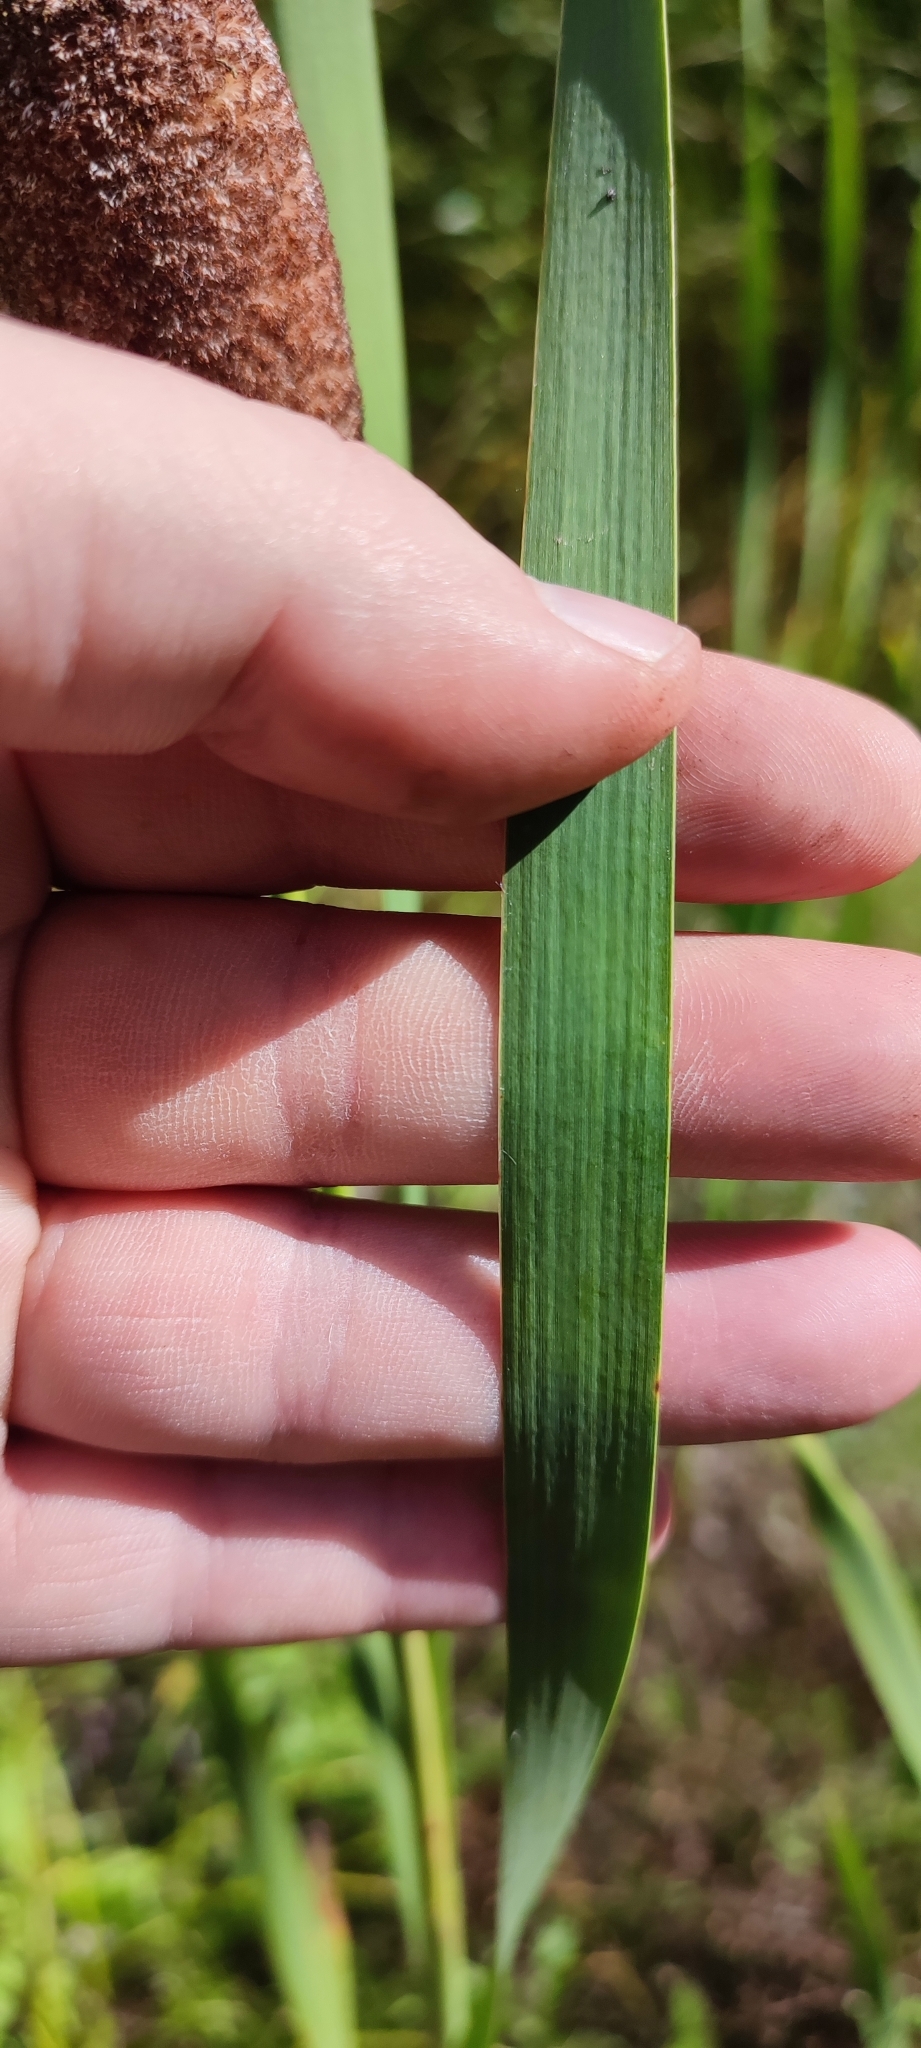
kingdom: Plantae
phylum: Tracheophyta
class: Liliopsida
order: Poales
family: Typhaceae
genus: Typha
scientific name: Typha incana
